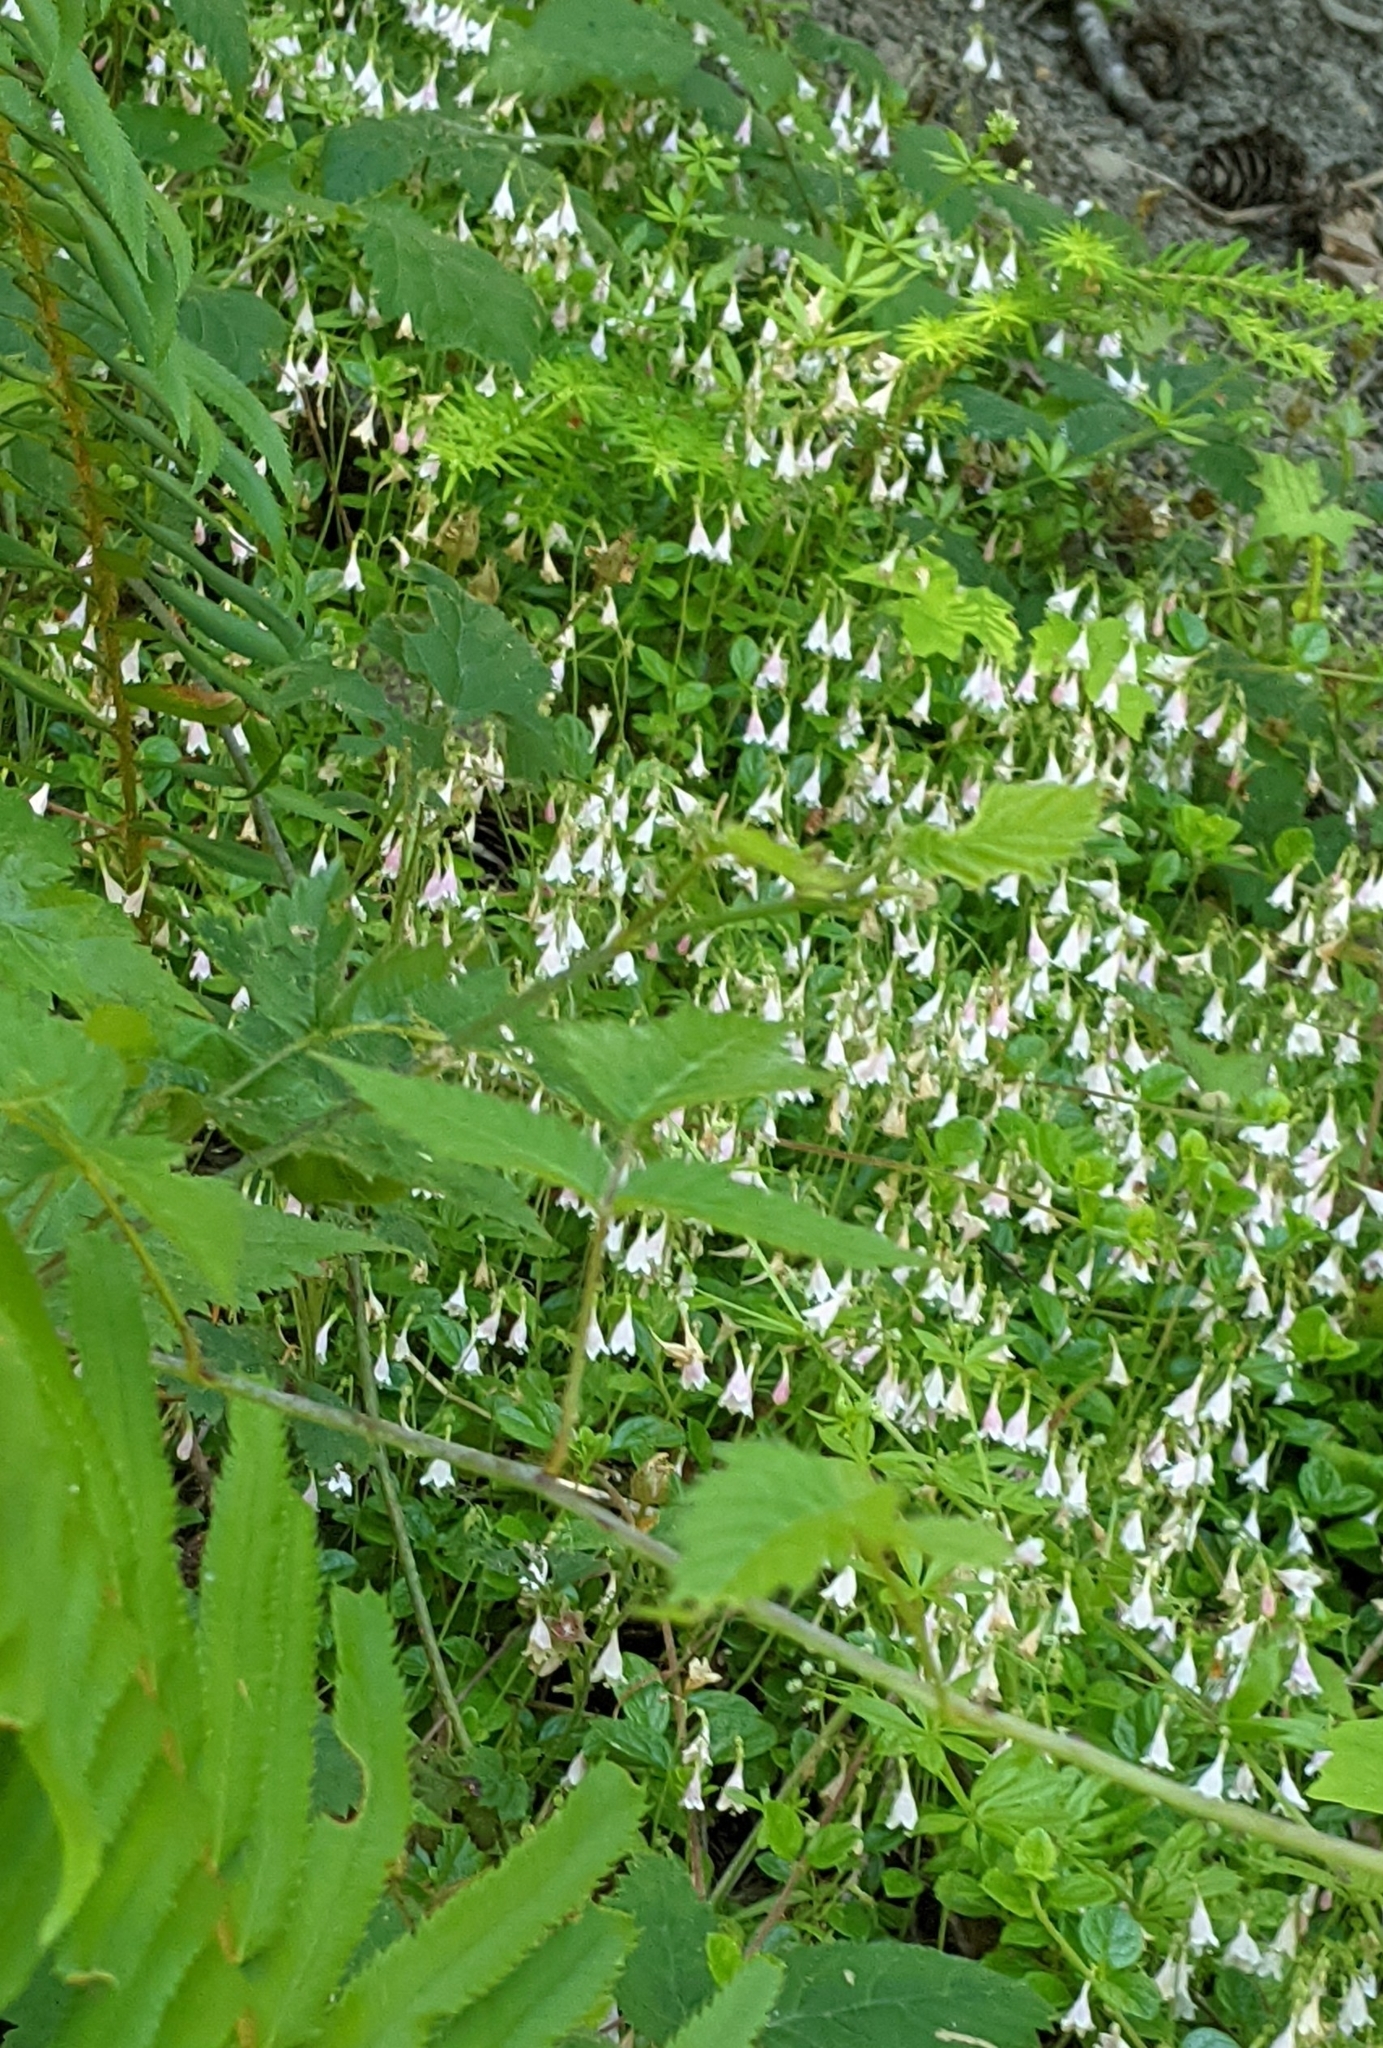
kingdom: Plantae
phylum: Tracheophyta
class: Magnoliopsida
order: Dipsacales
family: Caprifoliaceae
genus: Linnaea
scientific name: Linnaea borealis
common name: Twinflower
